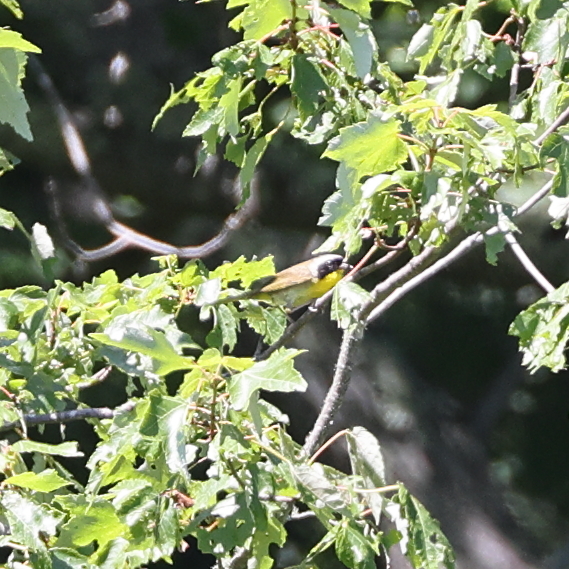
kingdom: Animalia
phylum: Chordata
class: Aves
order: Passeriformes
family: Parulidae
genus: Geothlypis
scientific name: Geothlypis trichas
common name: Common yellowthroat
